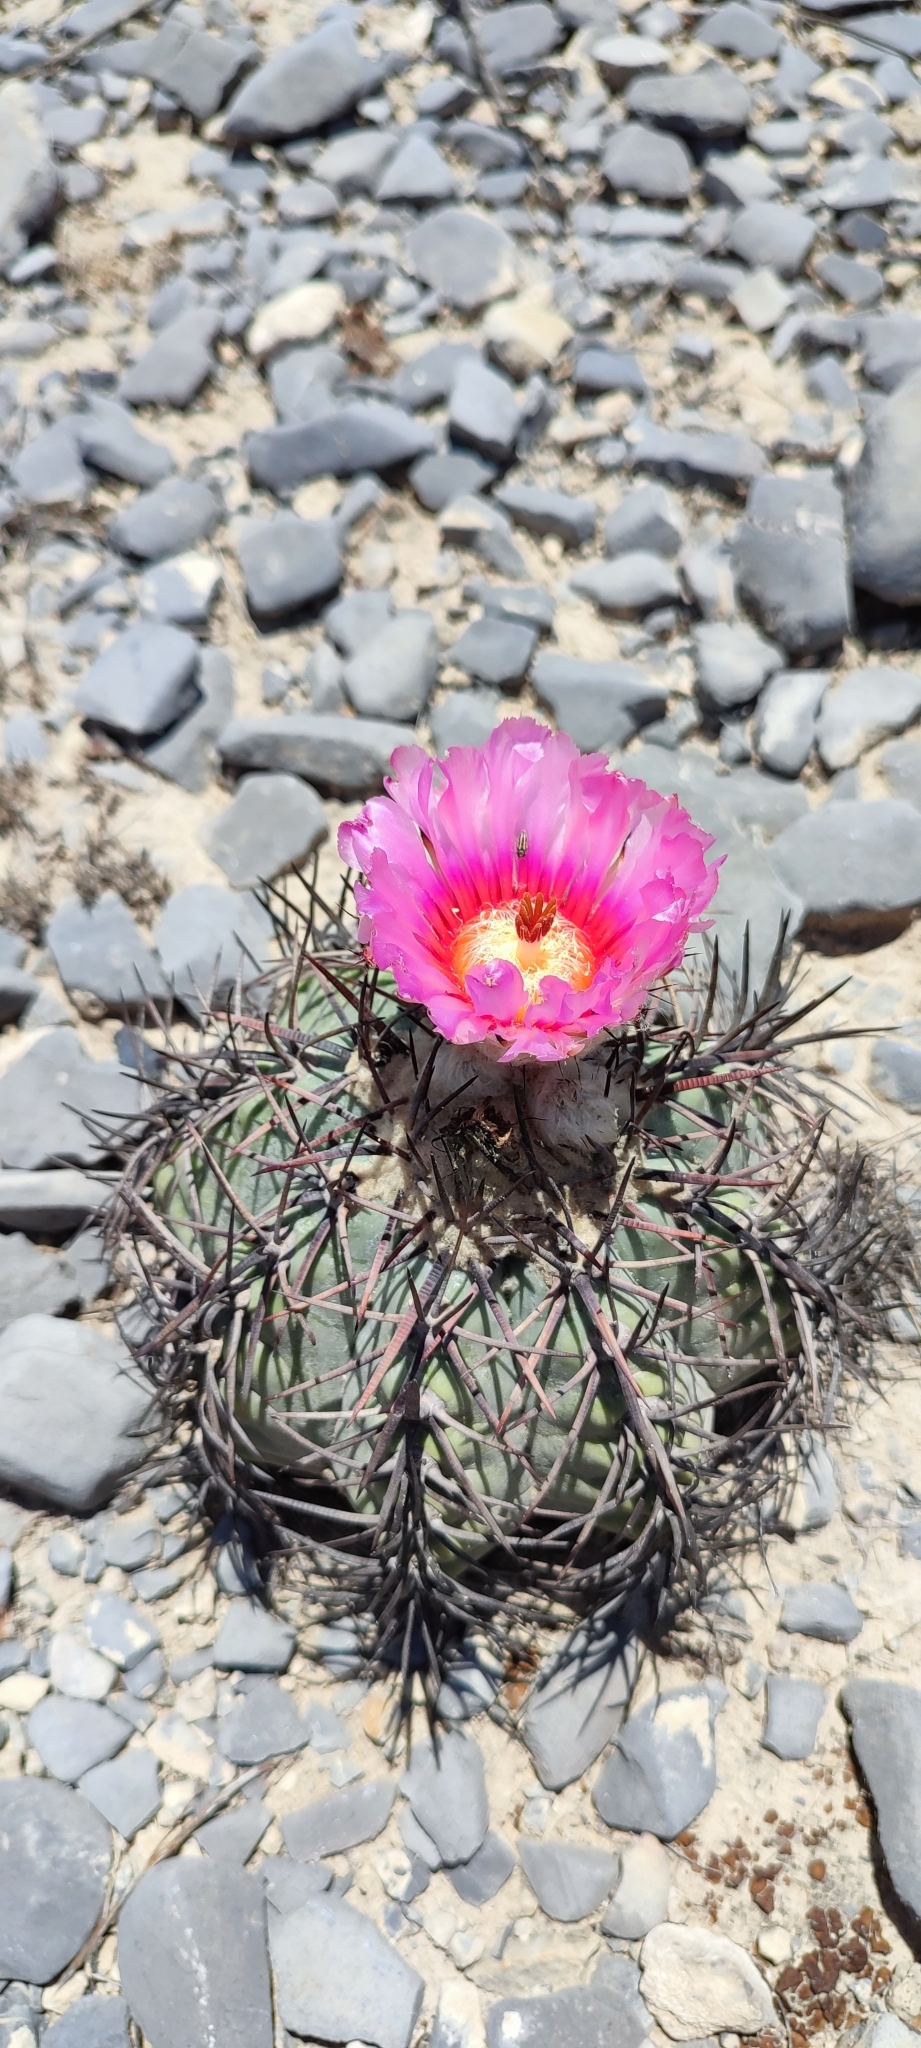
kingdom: Plantae
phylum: Tracheophyta
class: Magnoliopsida
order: Caryophyllales
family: Cactaceae
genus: Echinocactus
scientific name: Echinocactus horizonthalonius
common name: Devilshead
